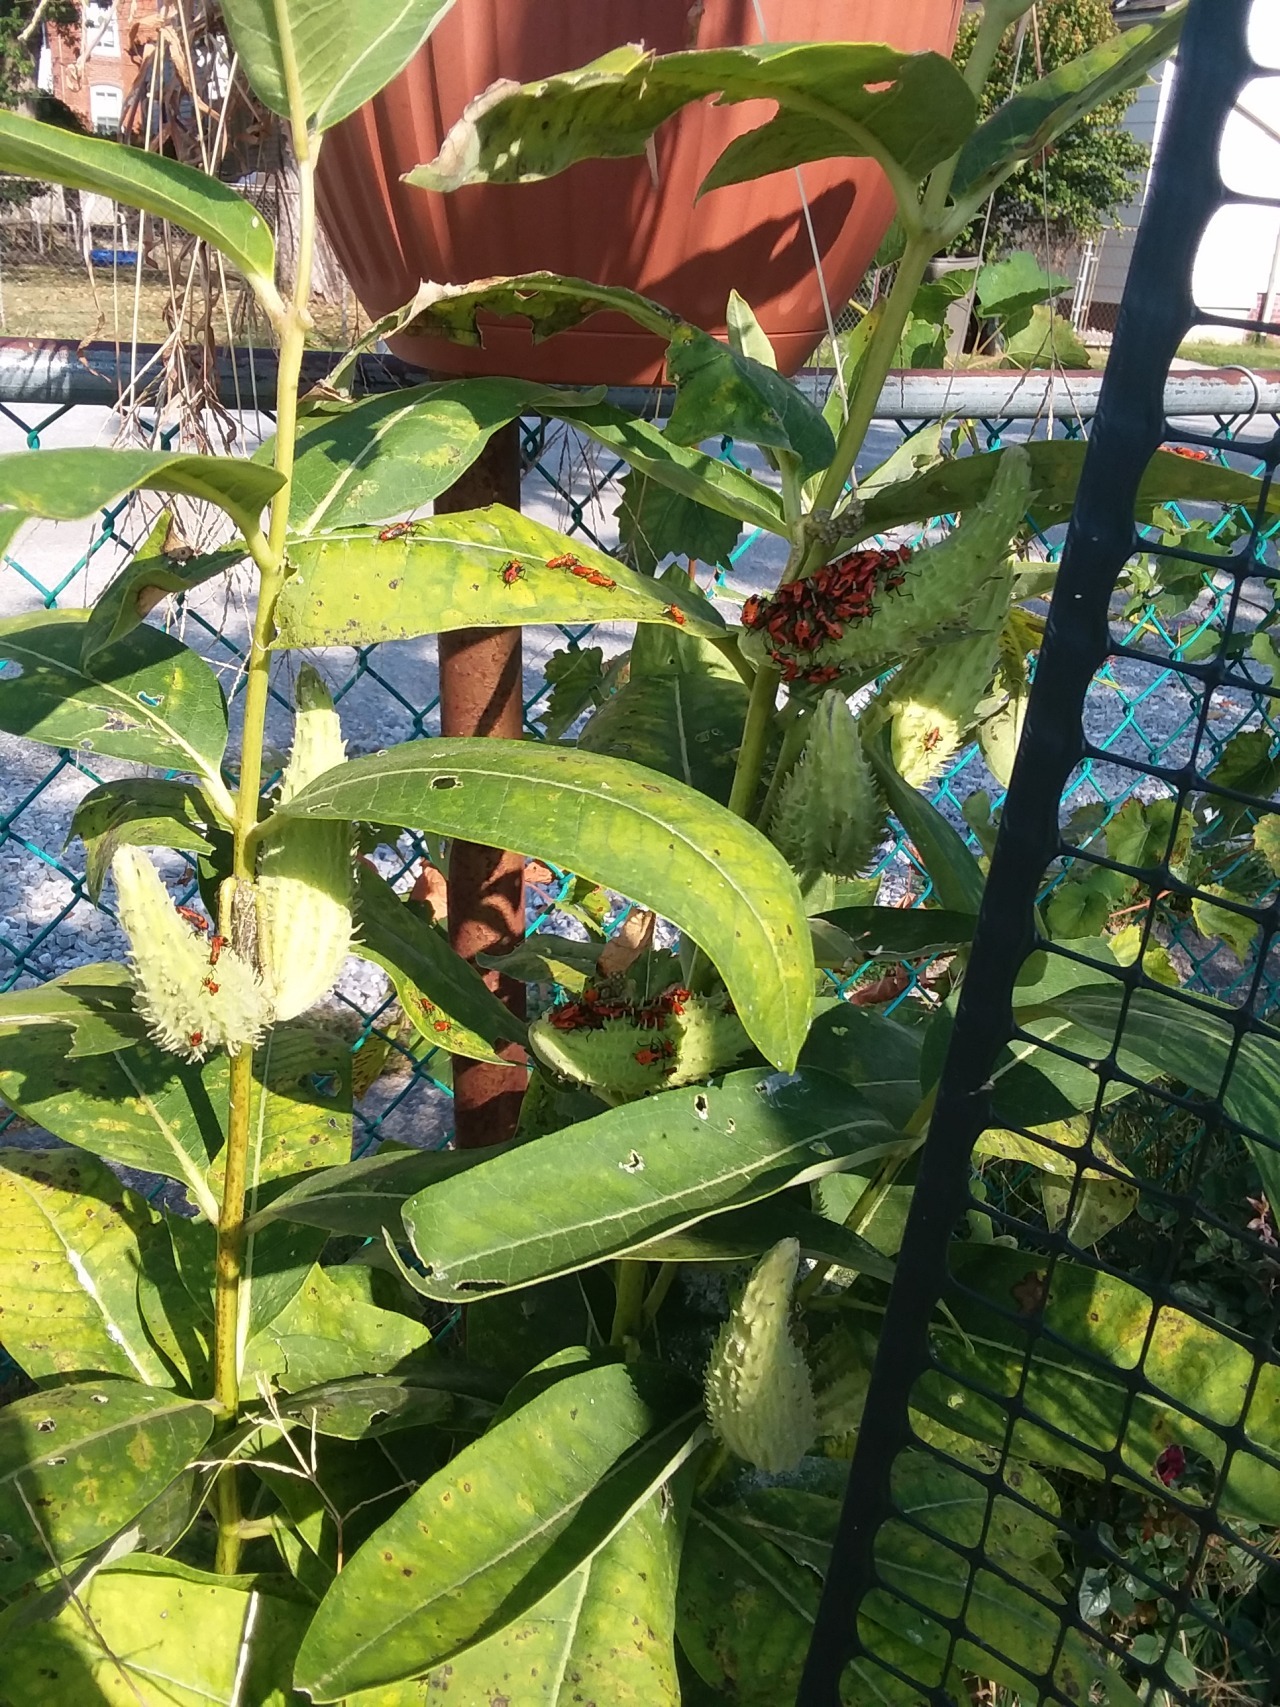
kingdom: Animalia
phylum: Arthropoda
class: Insecta
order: Hemiptera
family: Lygaeidae
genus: Oncopeltus
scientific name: Oncopeltus fasciatus
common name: Large milkweed bug
